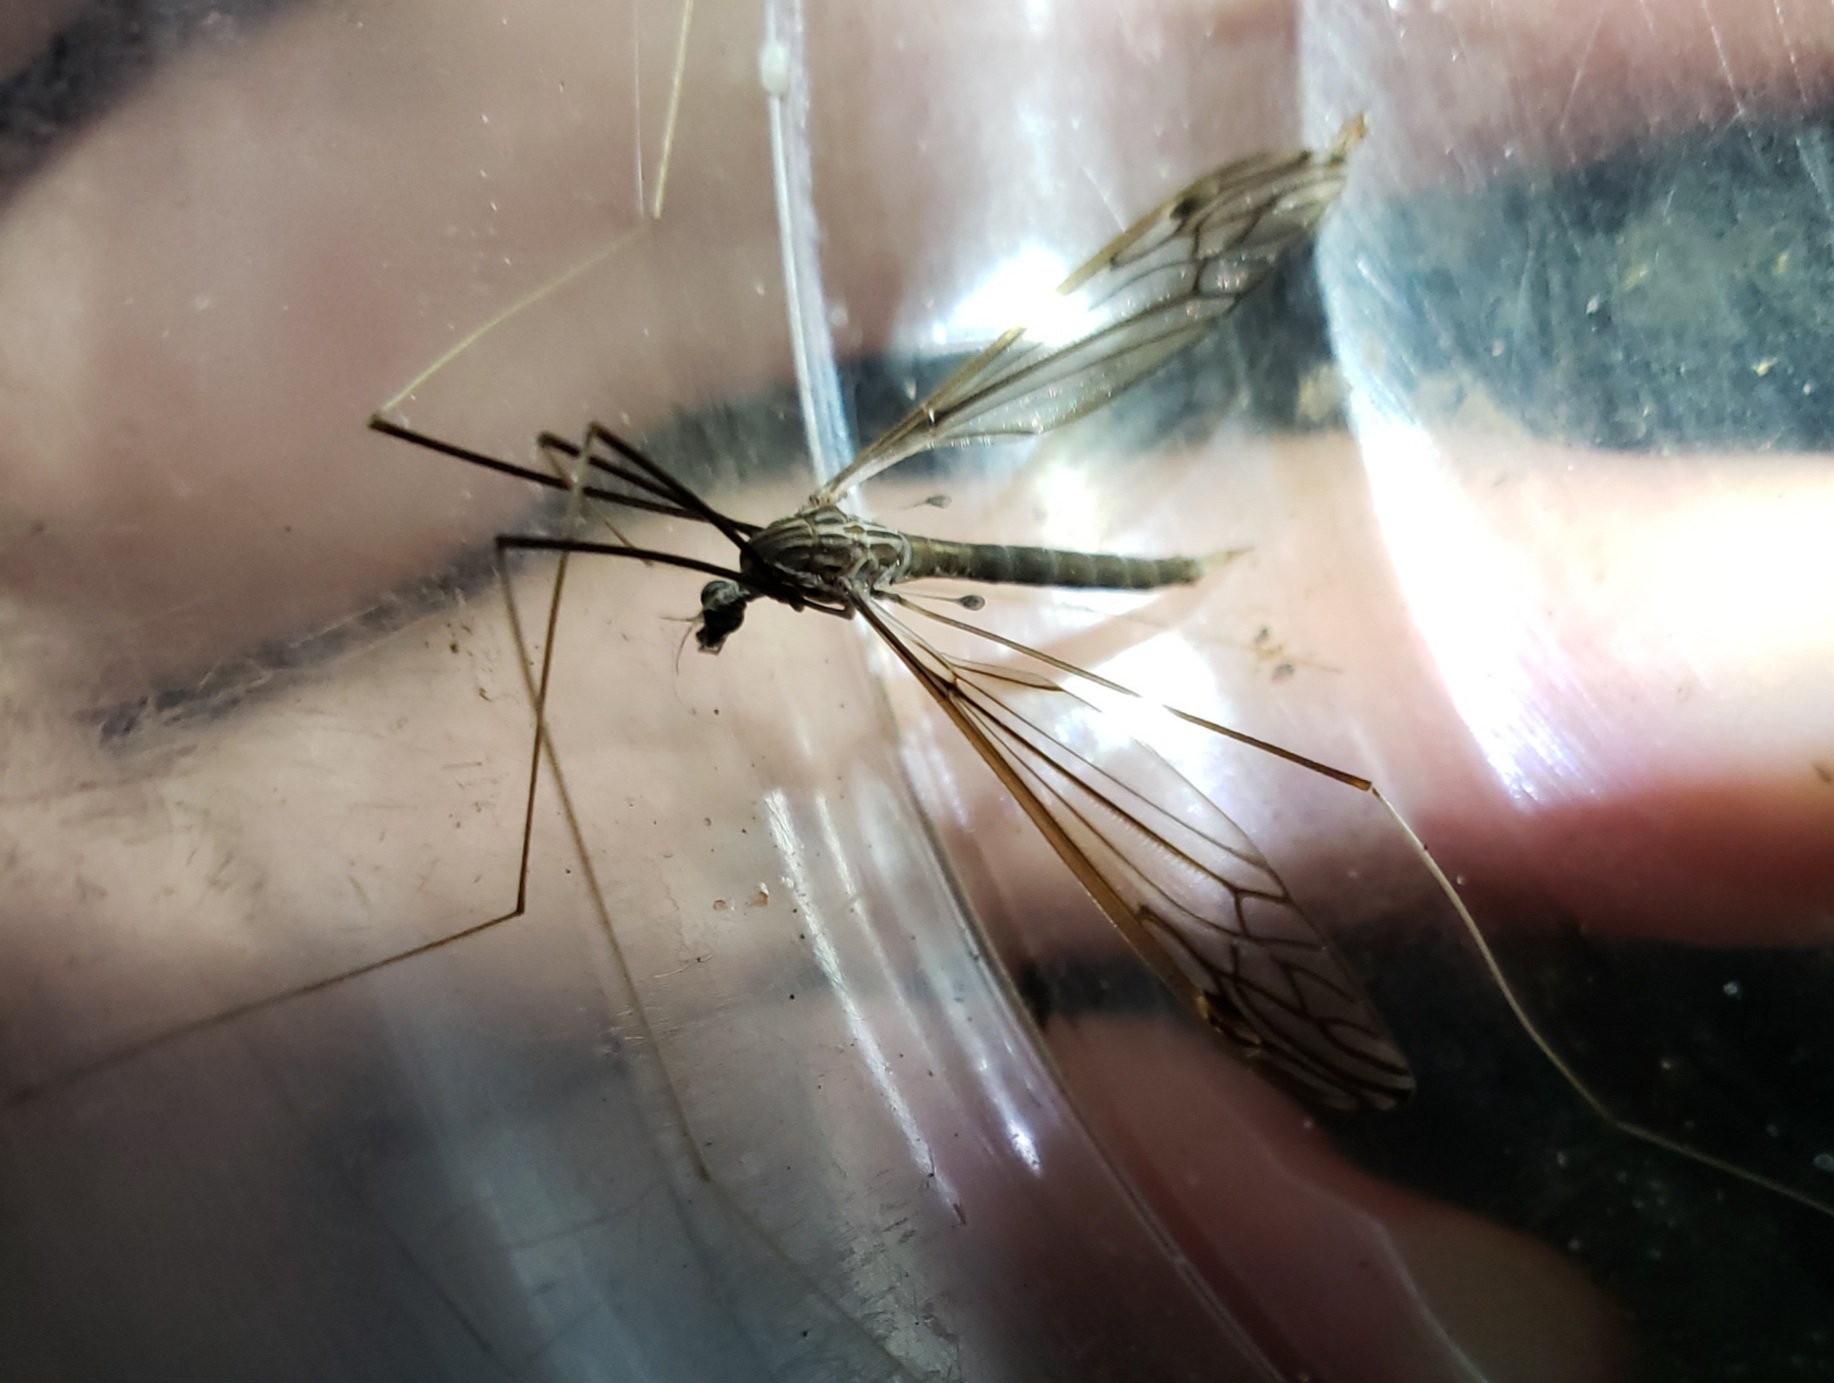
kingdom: Animalia
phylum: Arthropoda
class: Insecta
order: Diptera
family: Tipulidae
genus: Brachypremna
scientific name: Brachypremna dispellens
